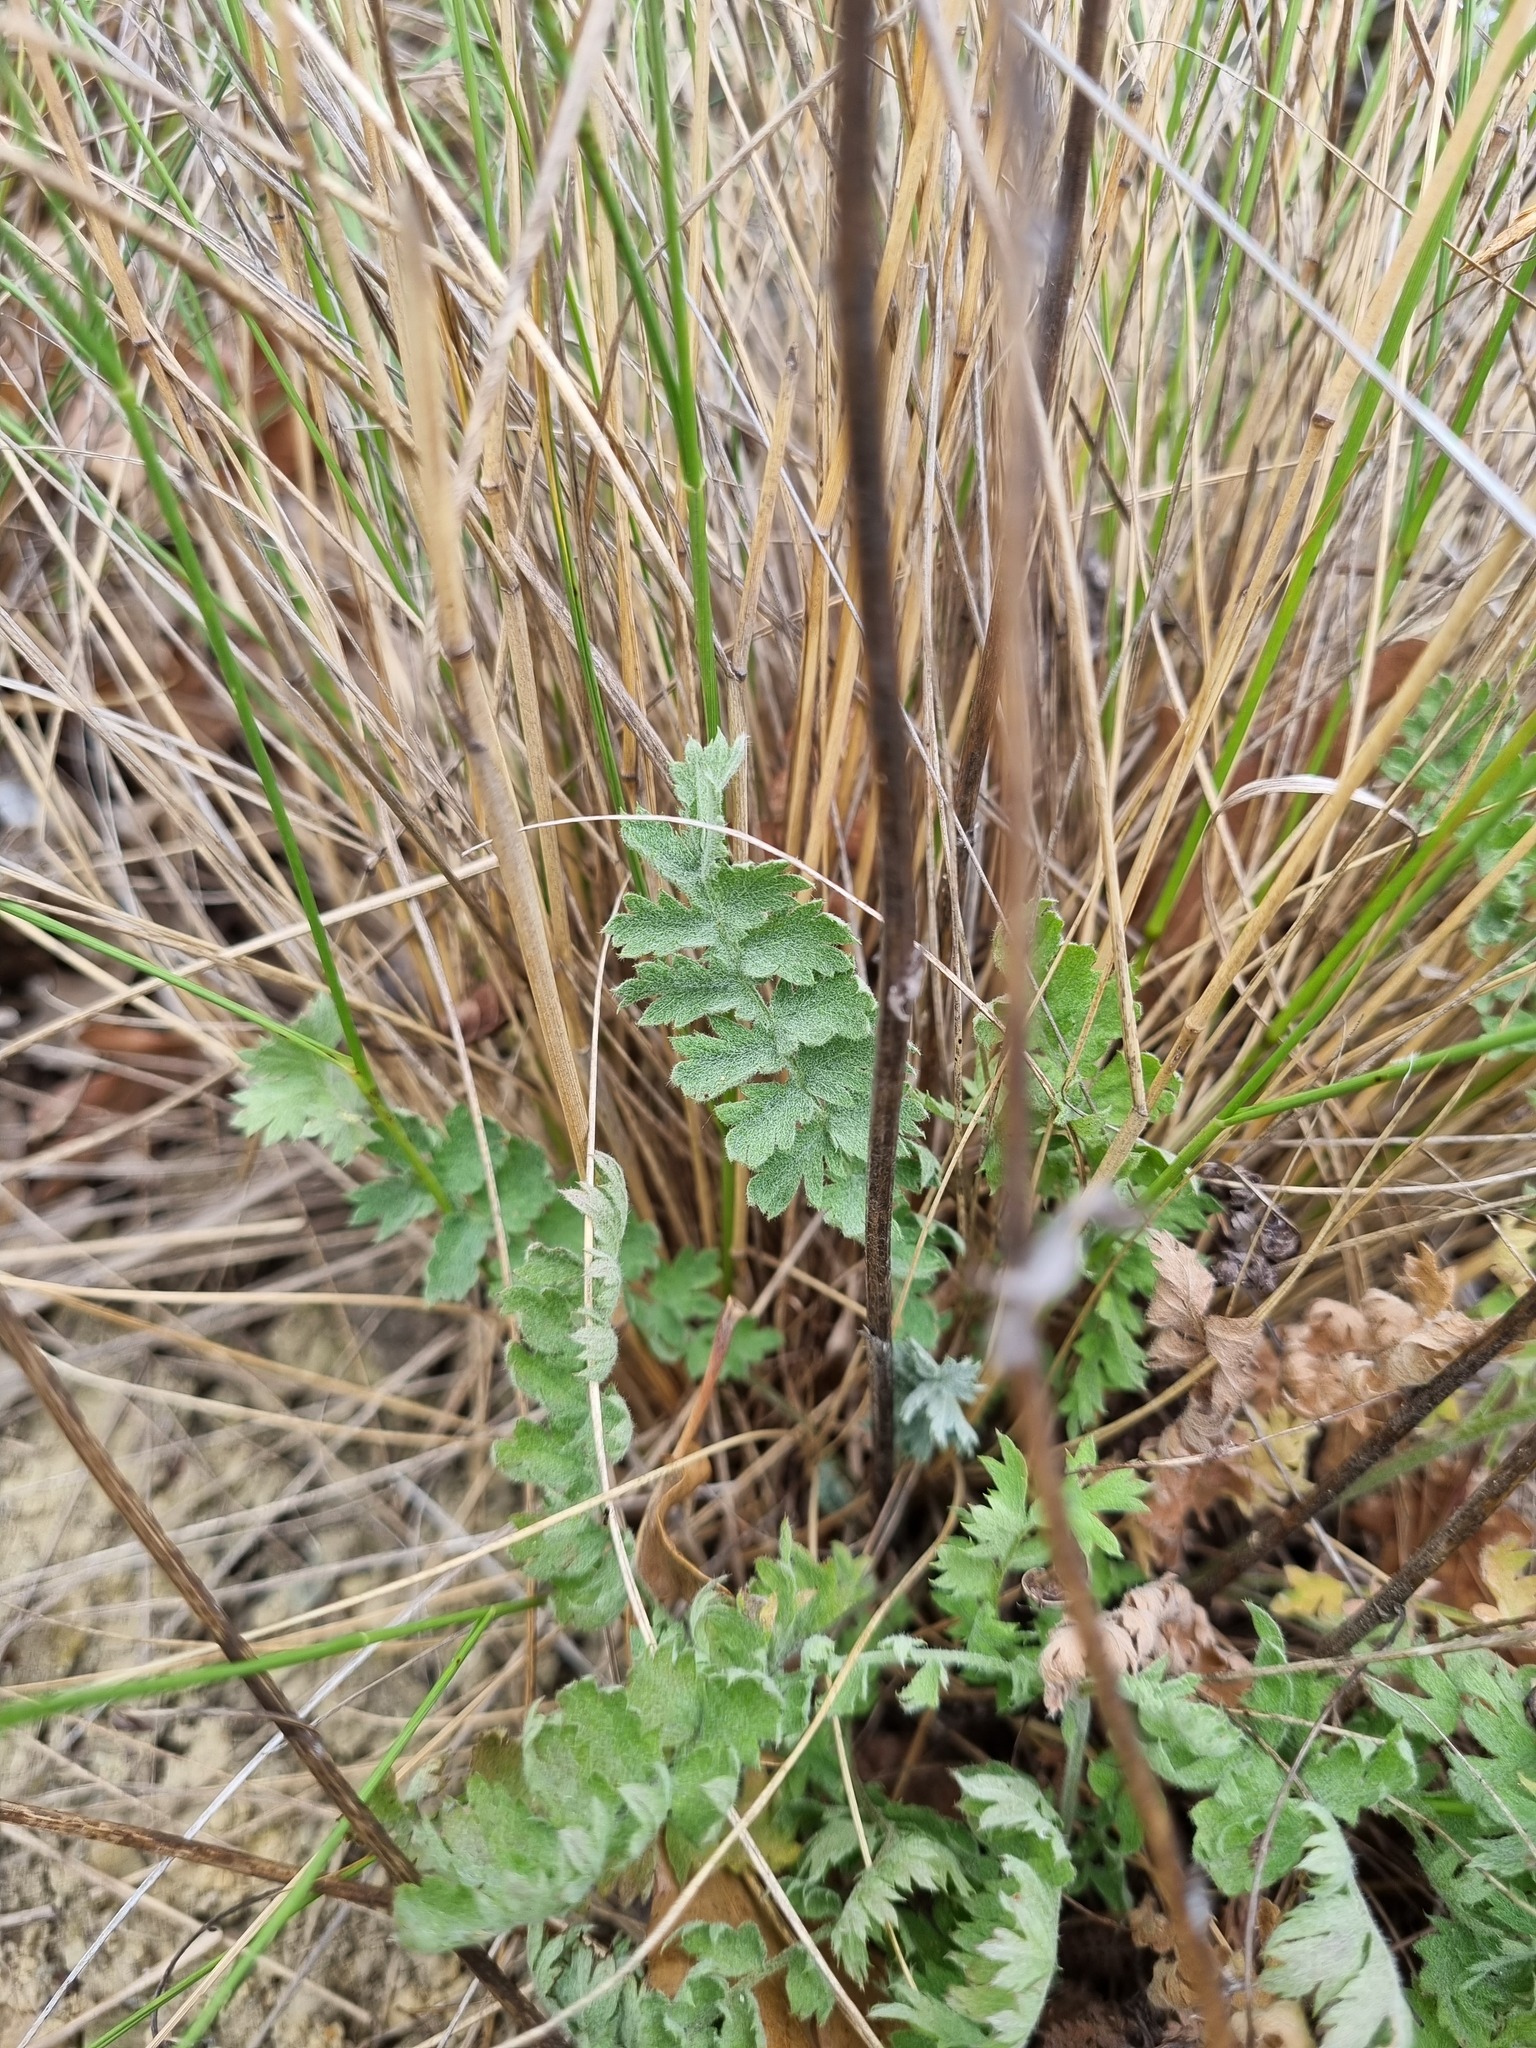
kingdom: Plantae
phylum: Tracheophyta
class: Magnoliopsida
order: Asterales
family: Asteraceae
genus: Tanacetum
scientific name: Tanacetum poteriifolium
